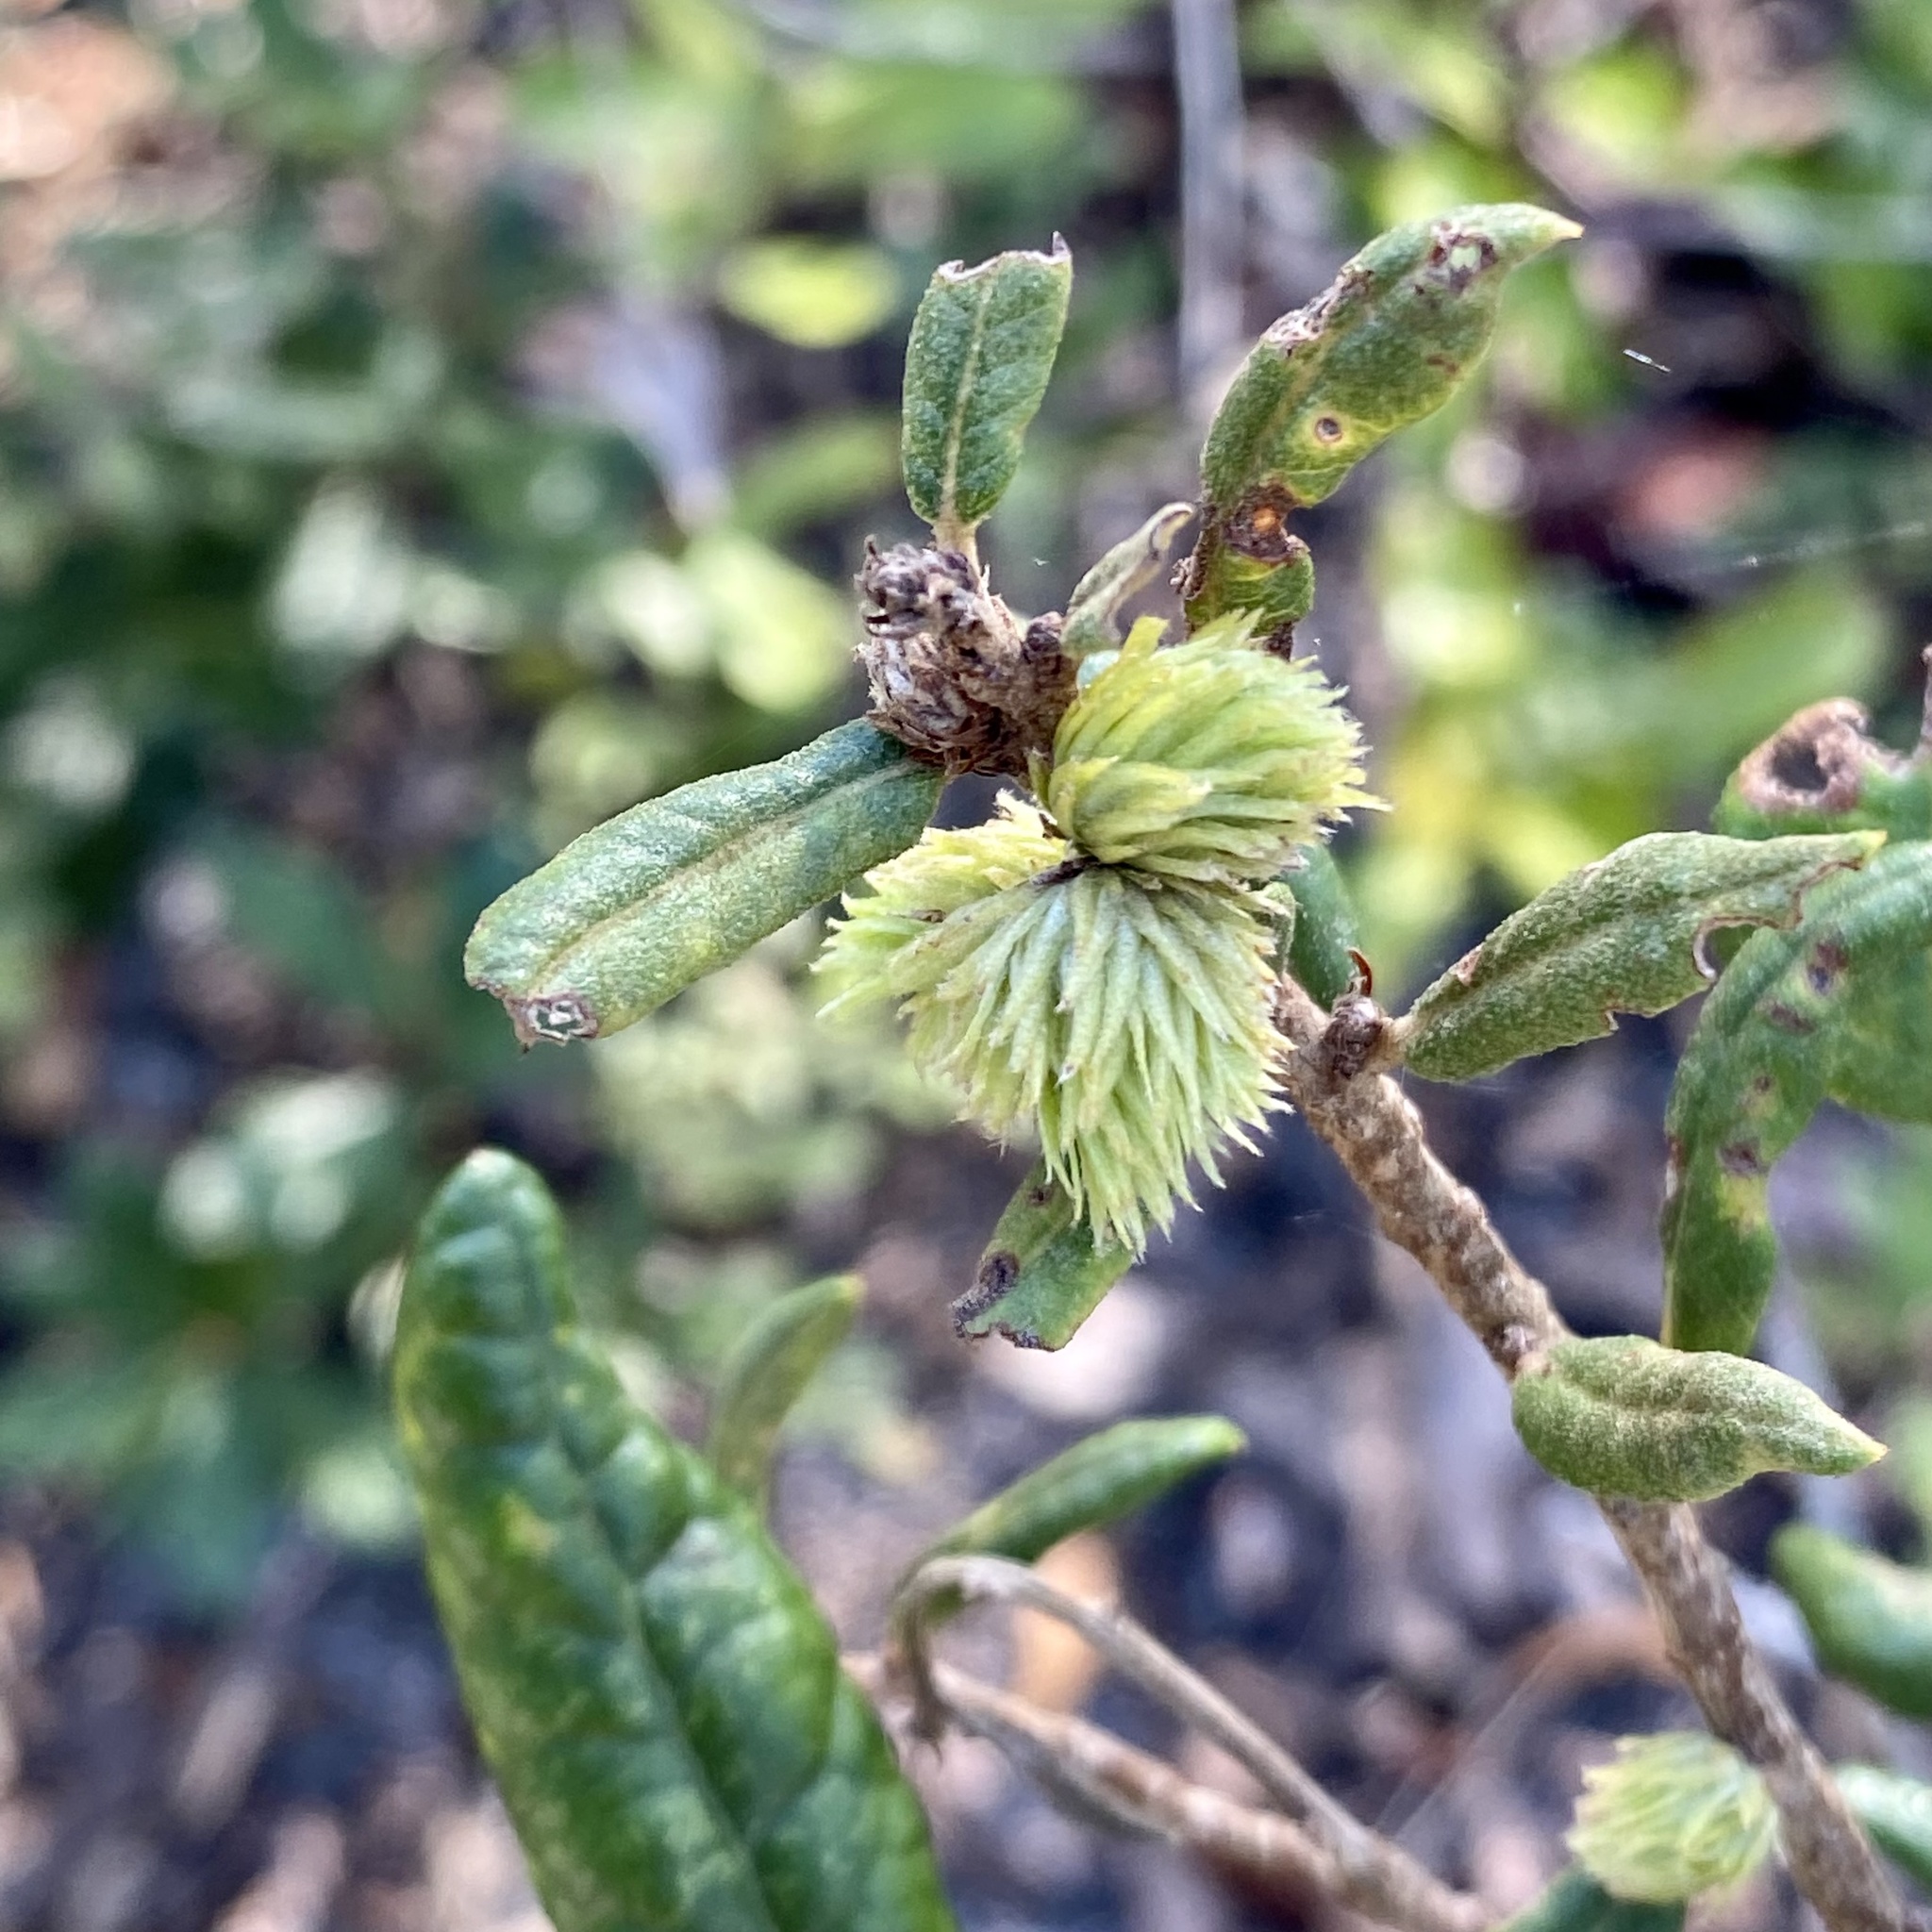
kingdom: Animalia
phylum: Arthropoda
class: Insecta
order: Hymenoptera
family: Cynipidae
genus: Andricus
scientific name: Andricus quercusfoliatus
